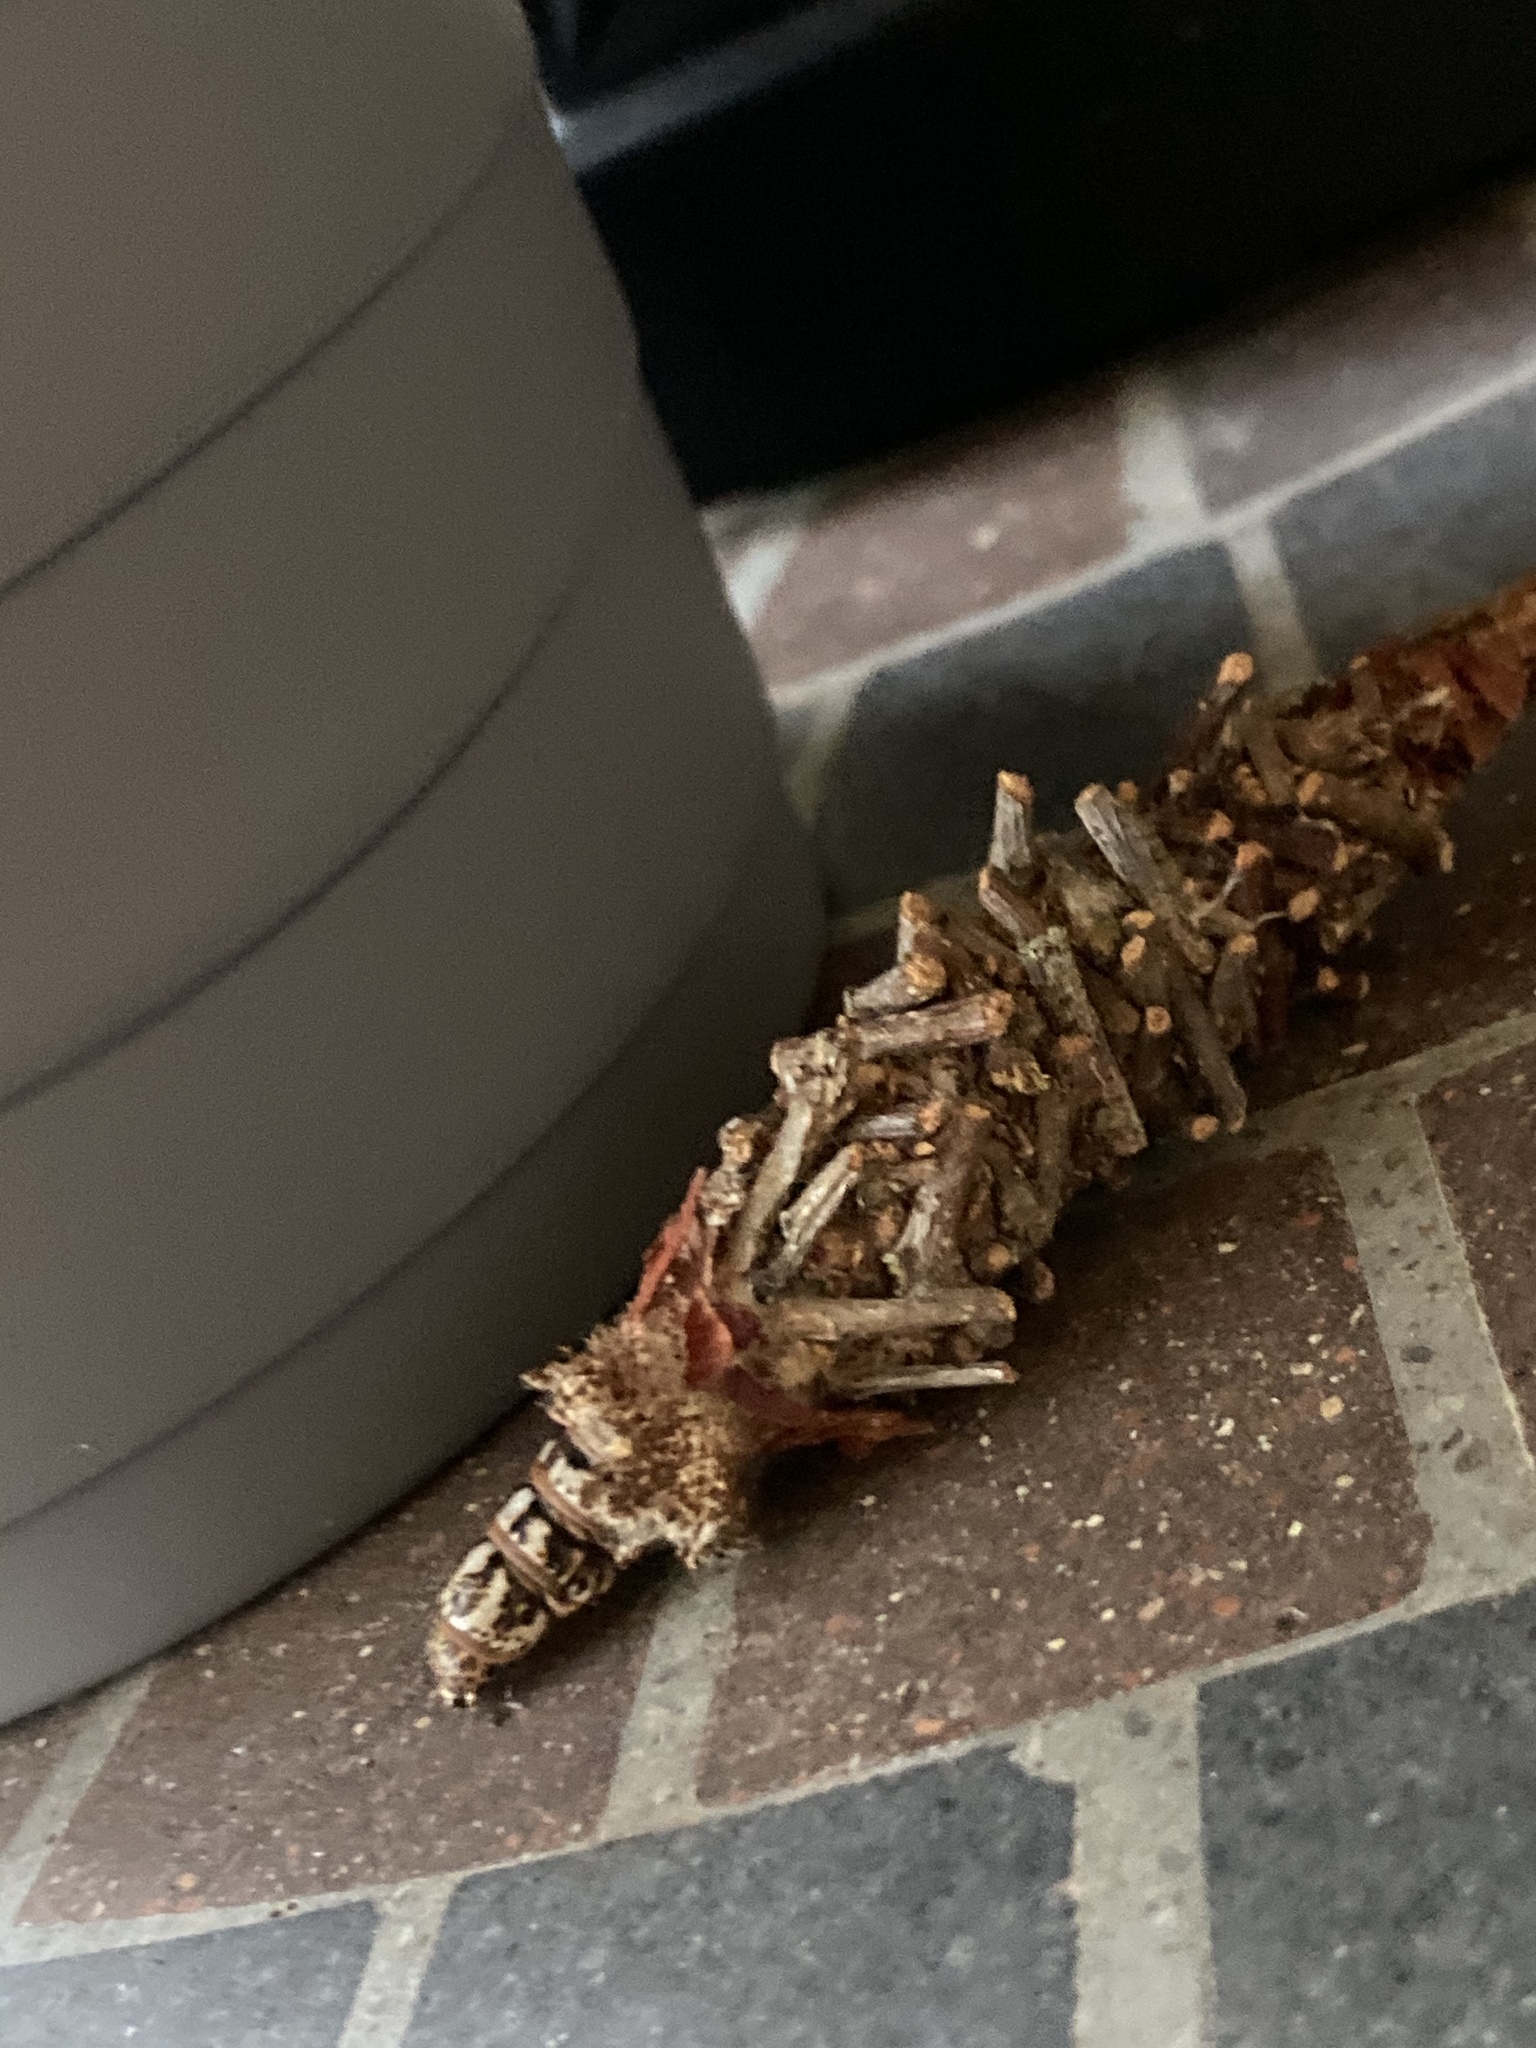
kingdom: Animalia
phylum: Arthropoda
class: Insecta
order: Lepidoptera
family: Psychidae
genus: Oiketicus
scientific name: Oiketicus
